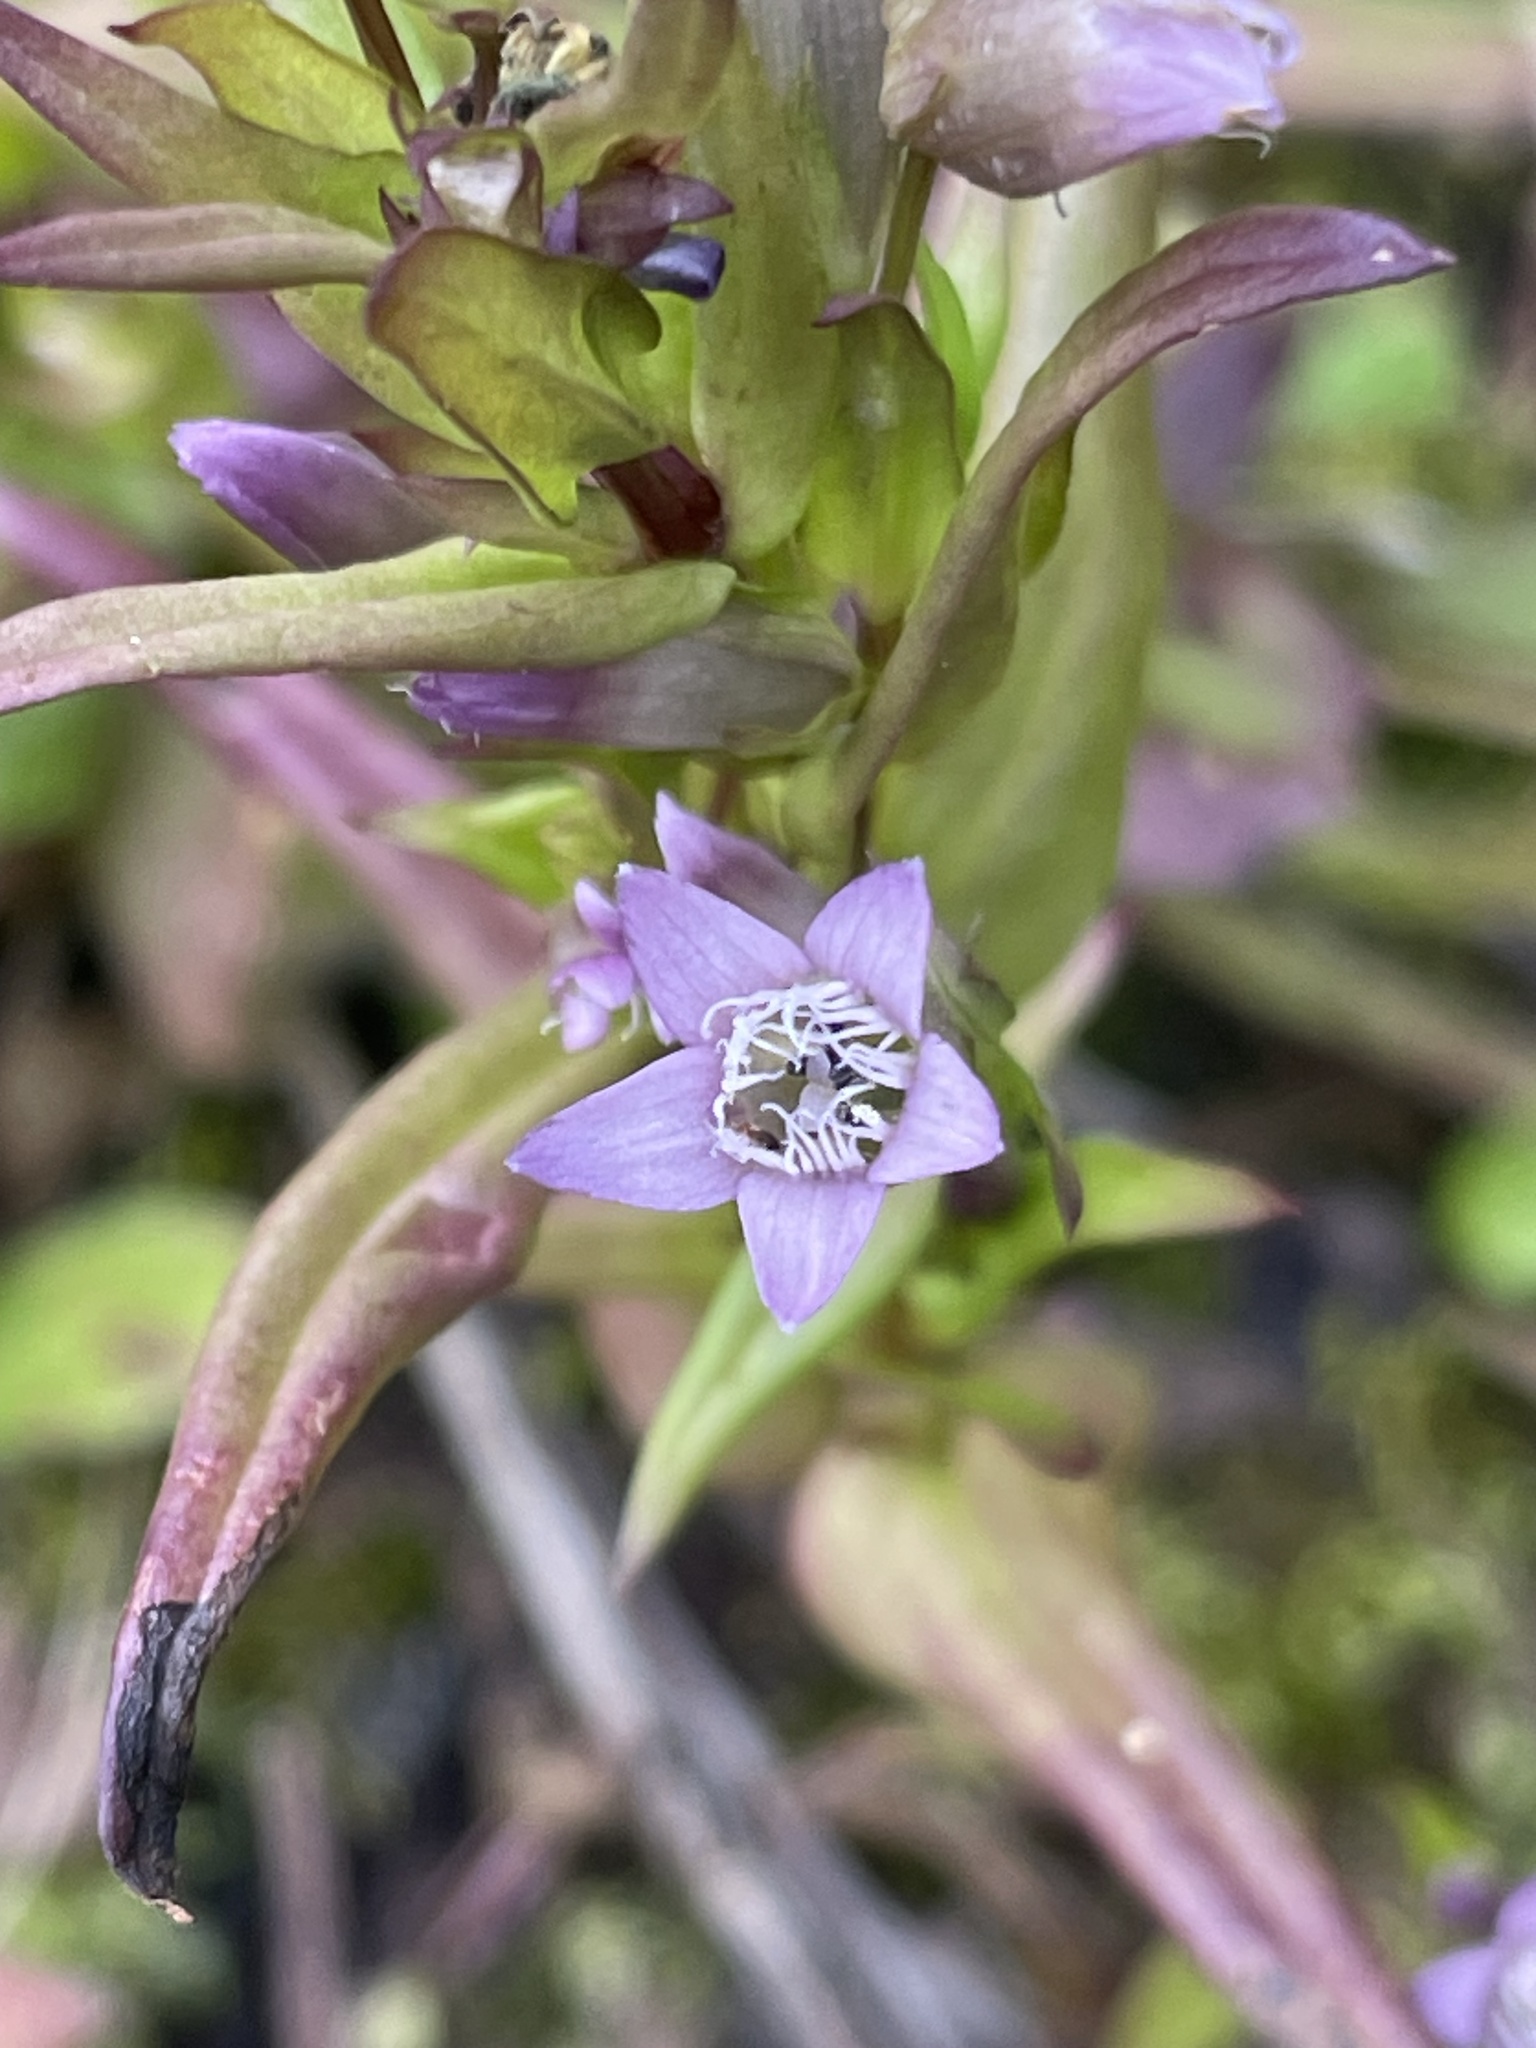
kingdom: Plantae
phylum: Tracheophyta
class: Magnoliopsida
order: Gentianales
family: Gentianaceae
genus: Gentianella
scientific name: Gentianella amarella
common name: Autumn gentian
